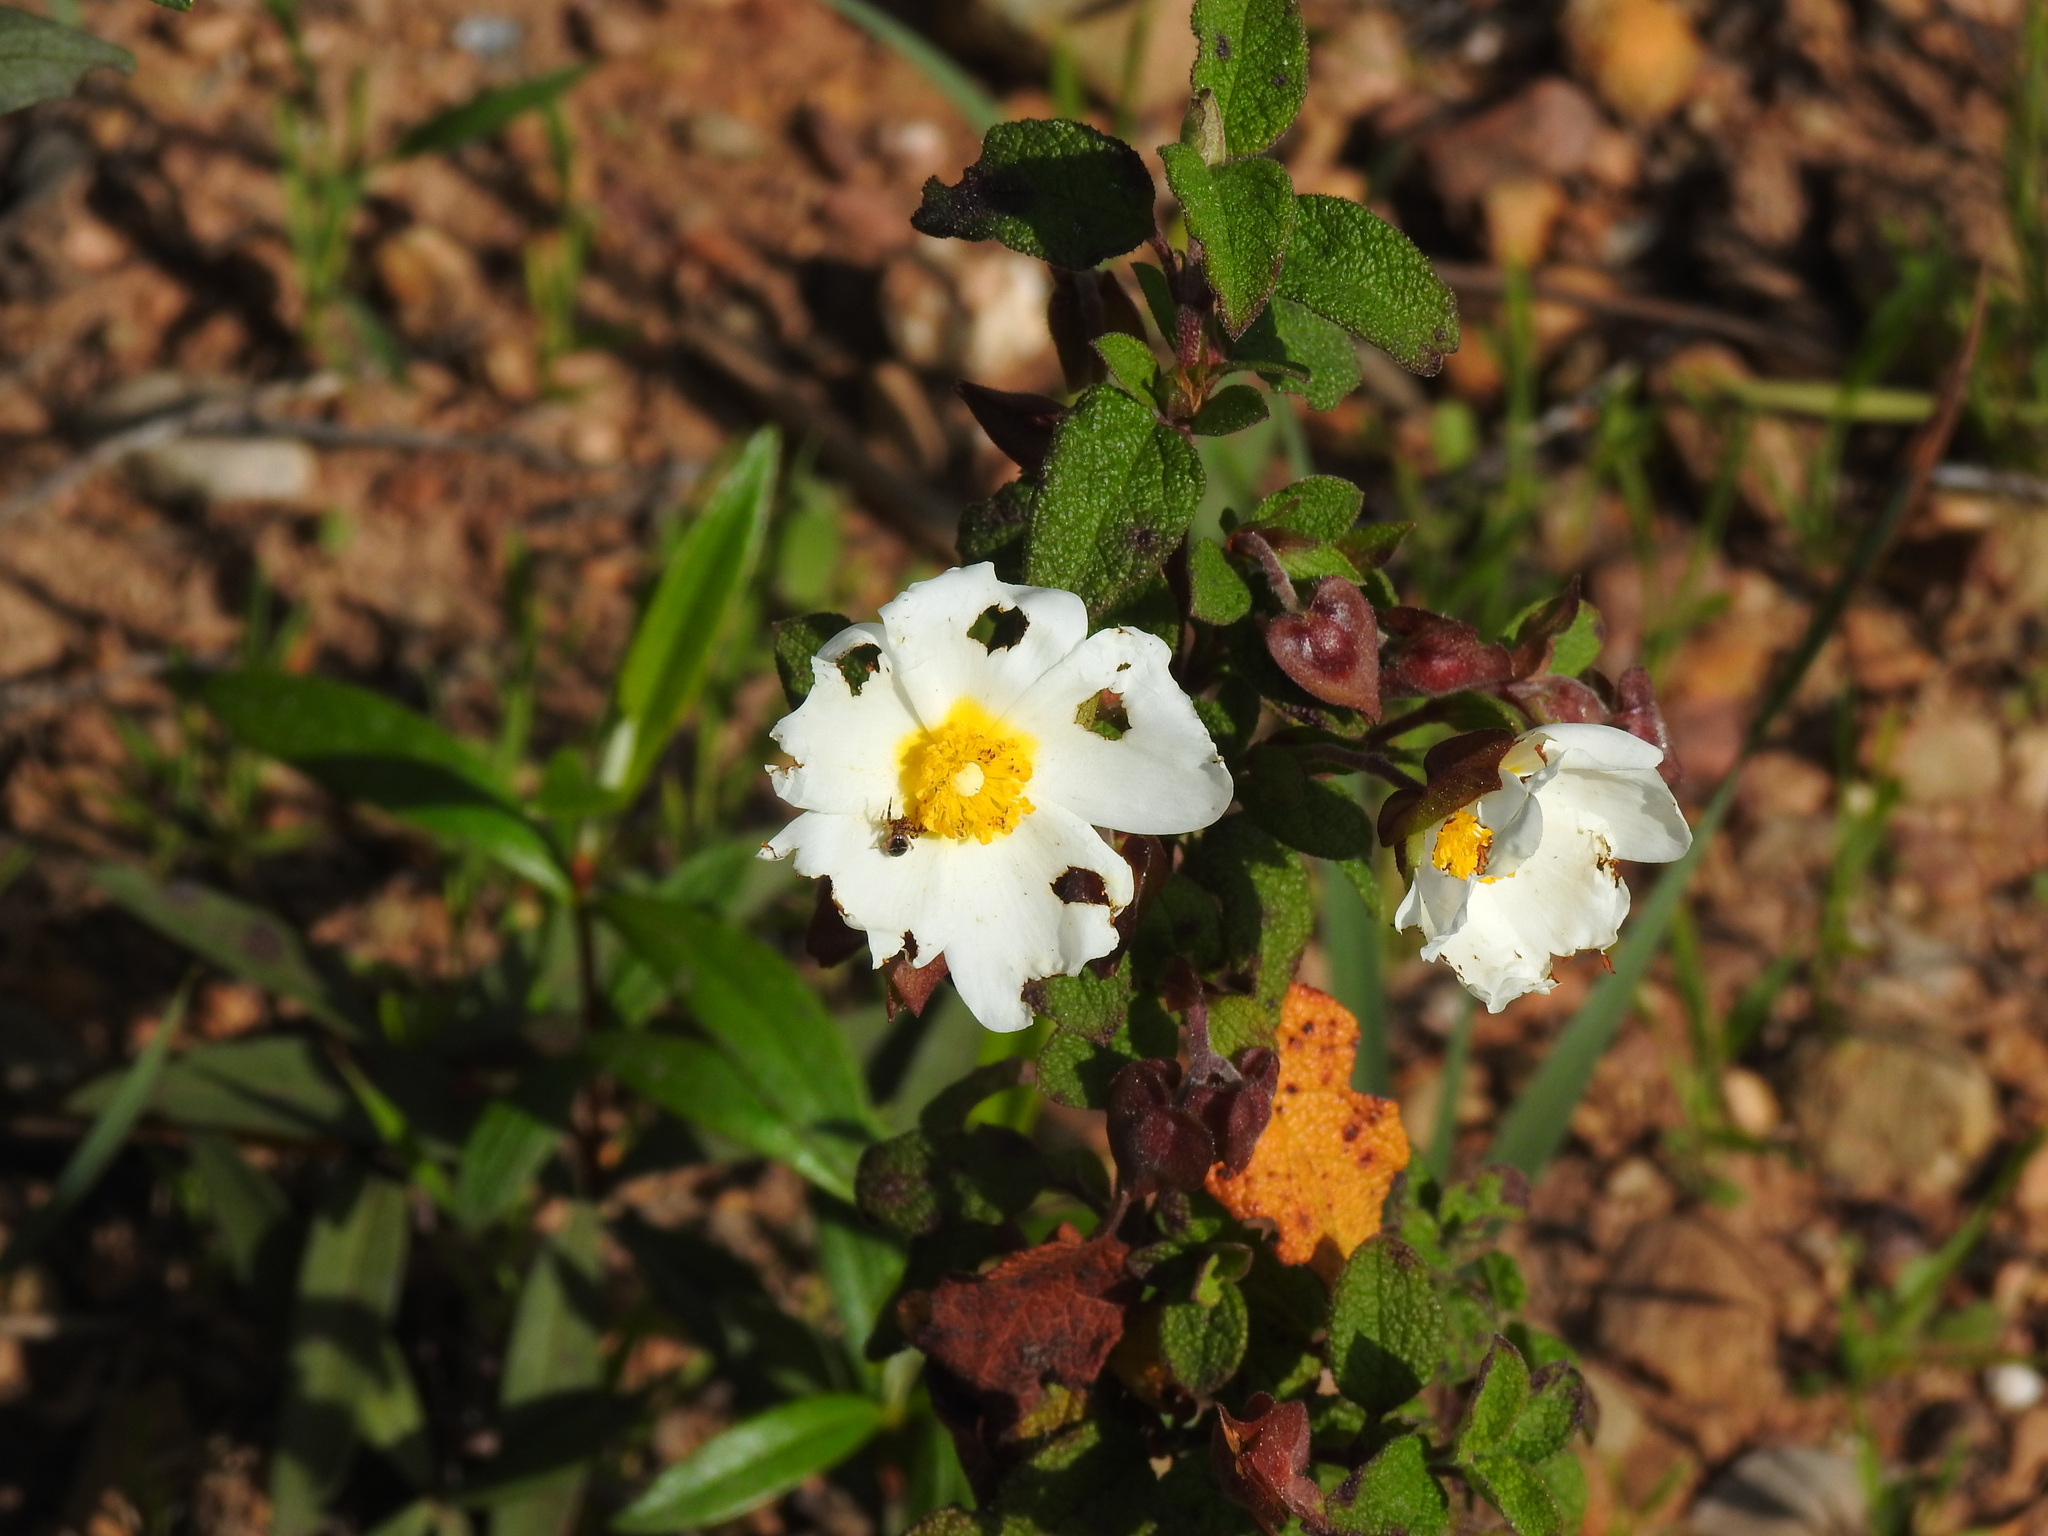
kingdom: Plantae
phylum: Tracheophyta
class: Magnoliopsida
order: Malvales
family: Cistaceae
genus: Cistus
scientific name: Cistus salviifolius
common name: Salvia cistus
